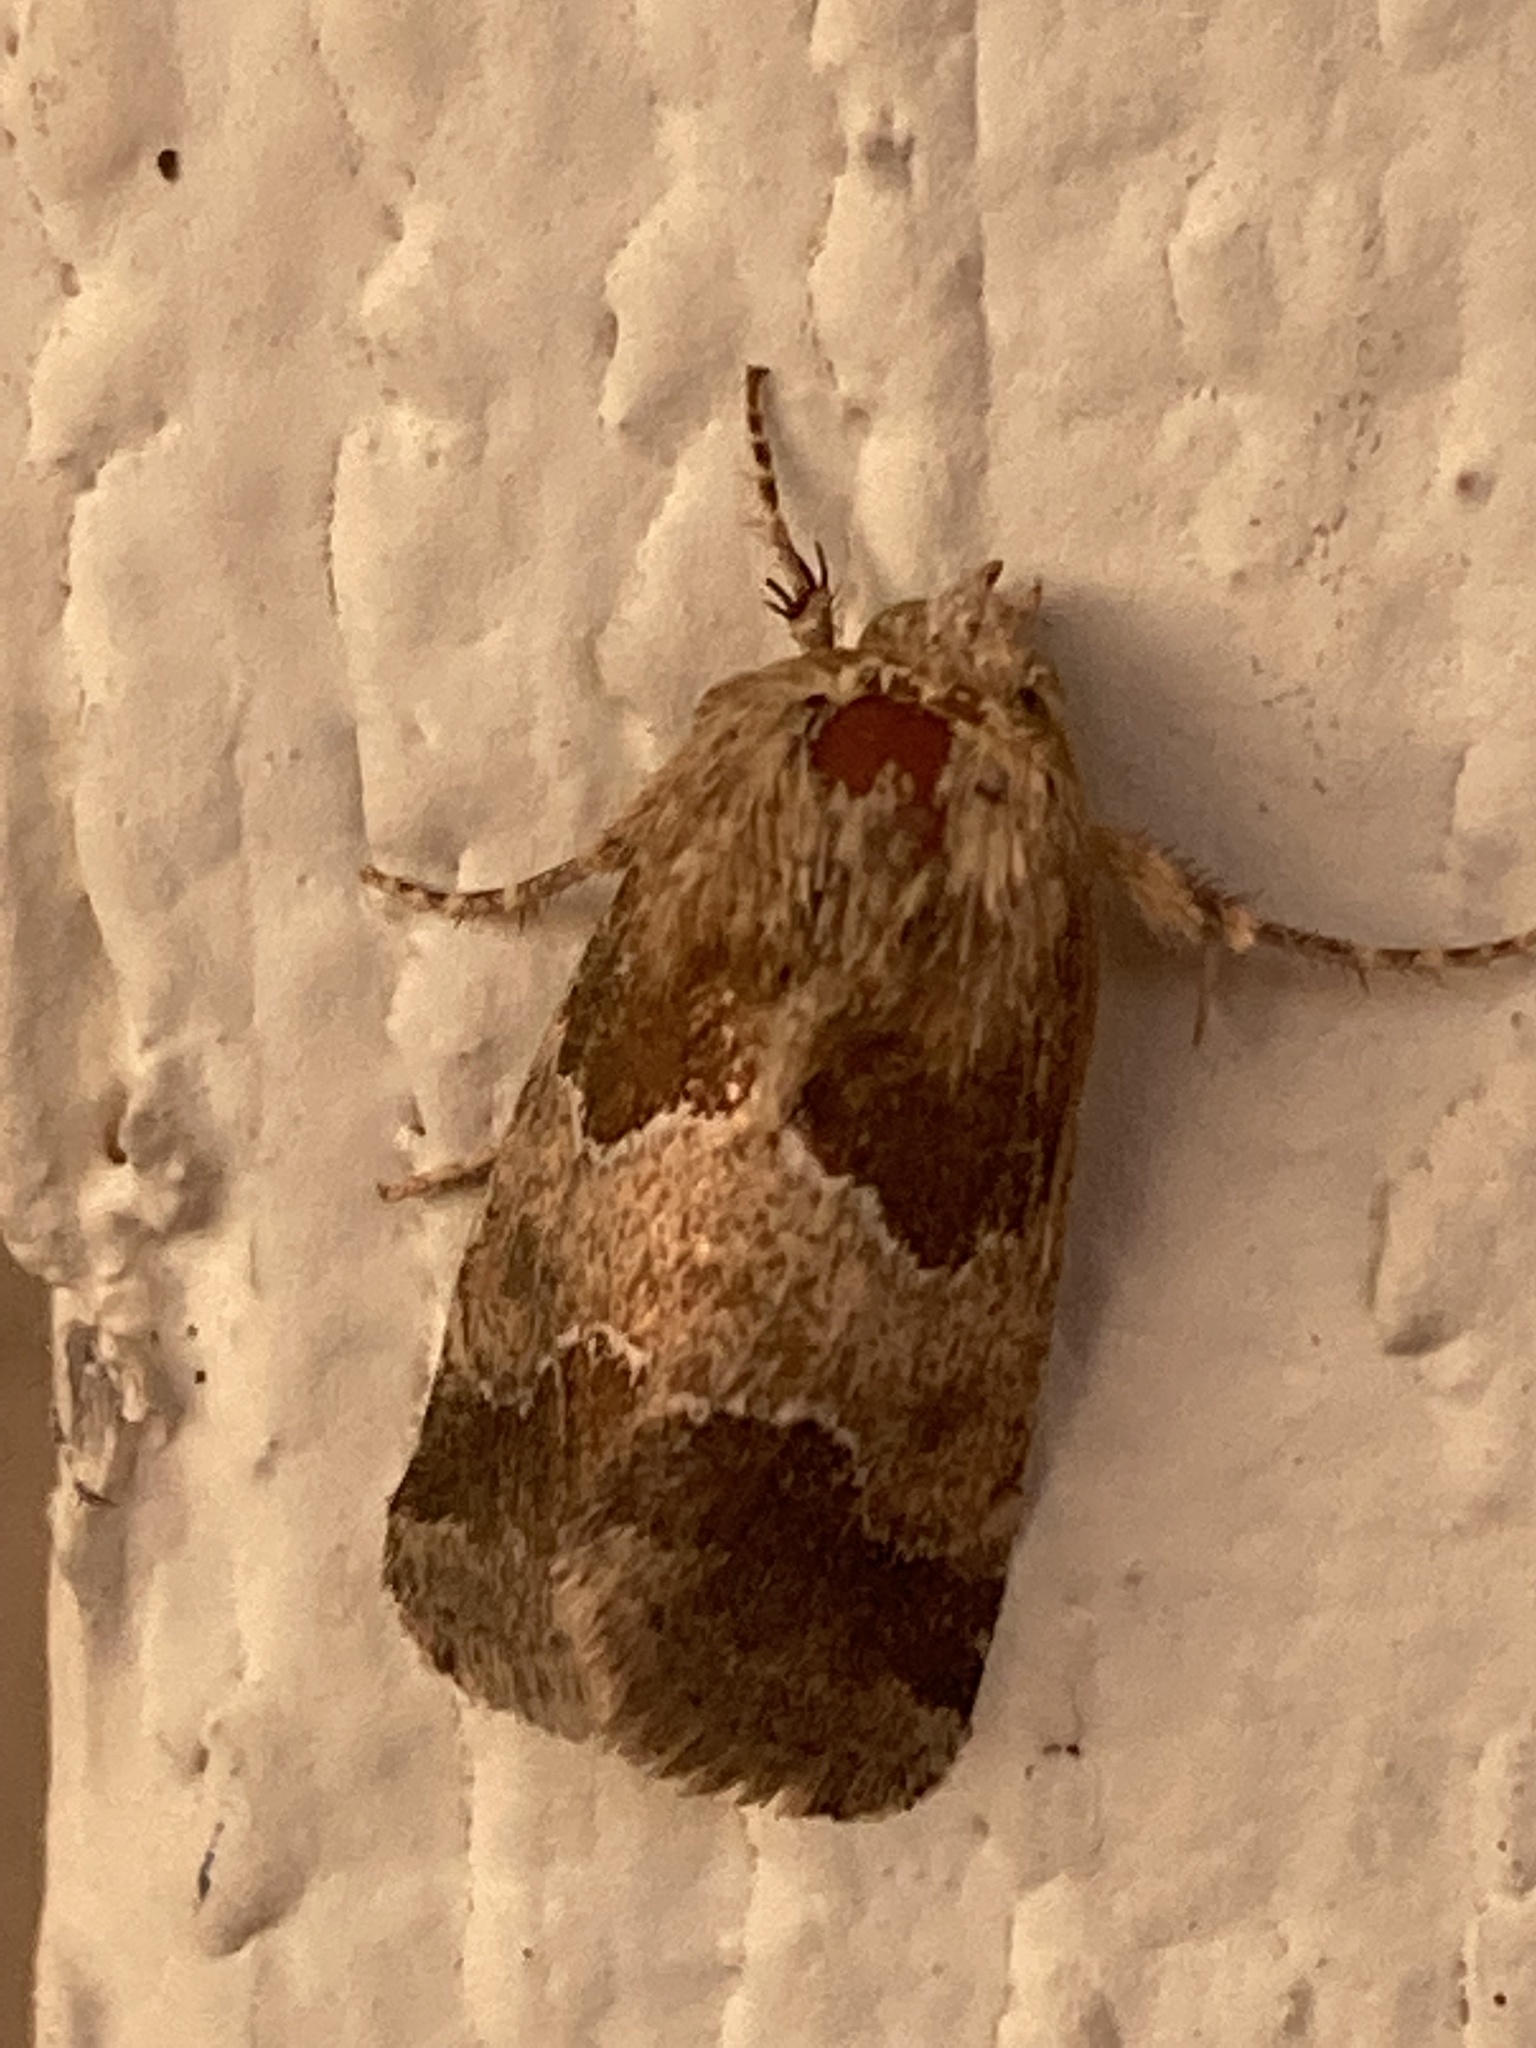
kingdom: Animalia
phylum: Arthropoda
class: Insecta
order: Lepidoptera
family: Noctuidae
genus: Schinia
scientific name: Schinia hanga
